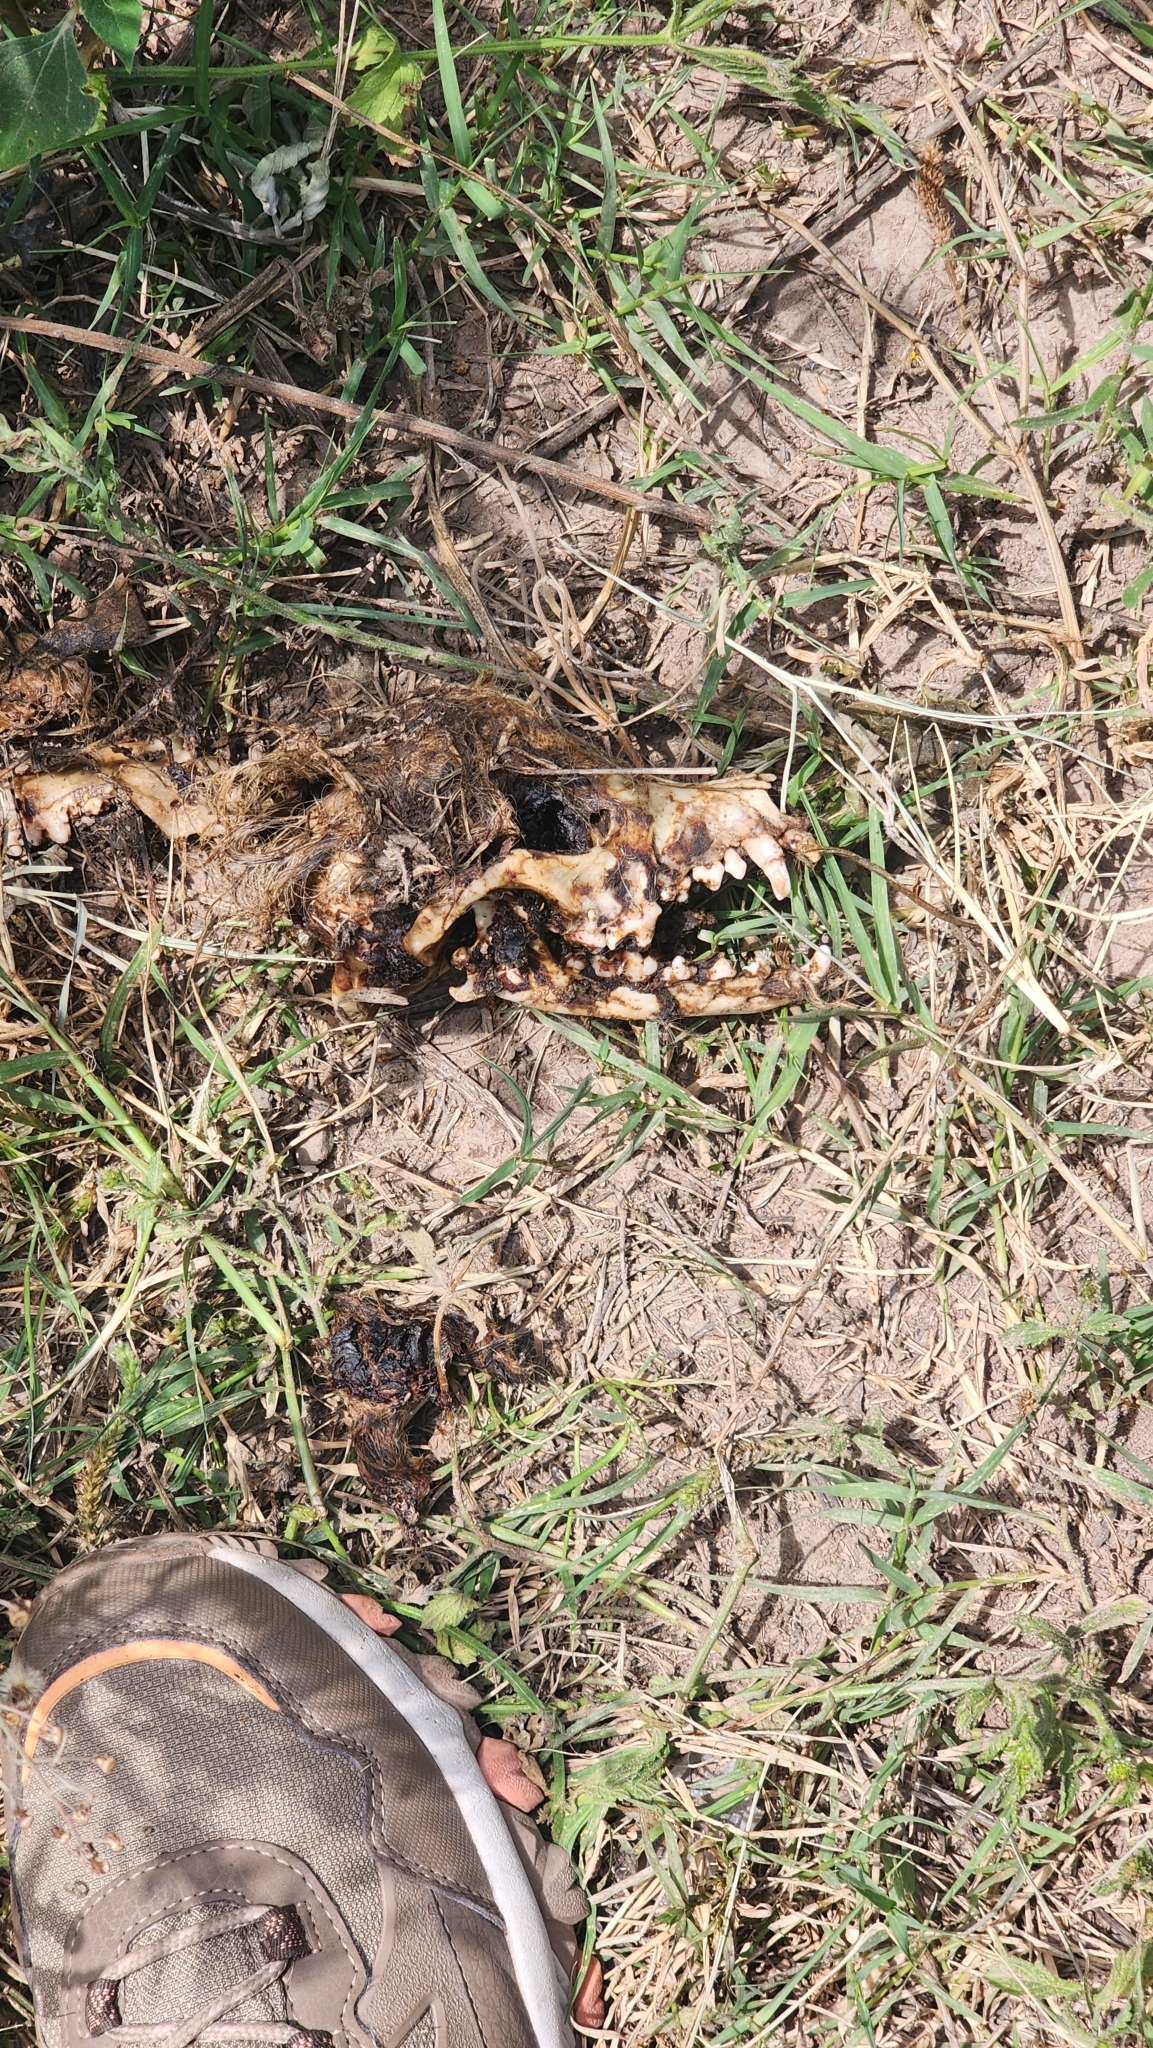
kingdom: Animalia
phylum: Chordata
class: Mammalia
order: Carnivora
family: Canidae
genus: Canis
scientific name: Canis lupus
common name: Gray wolf
